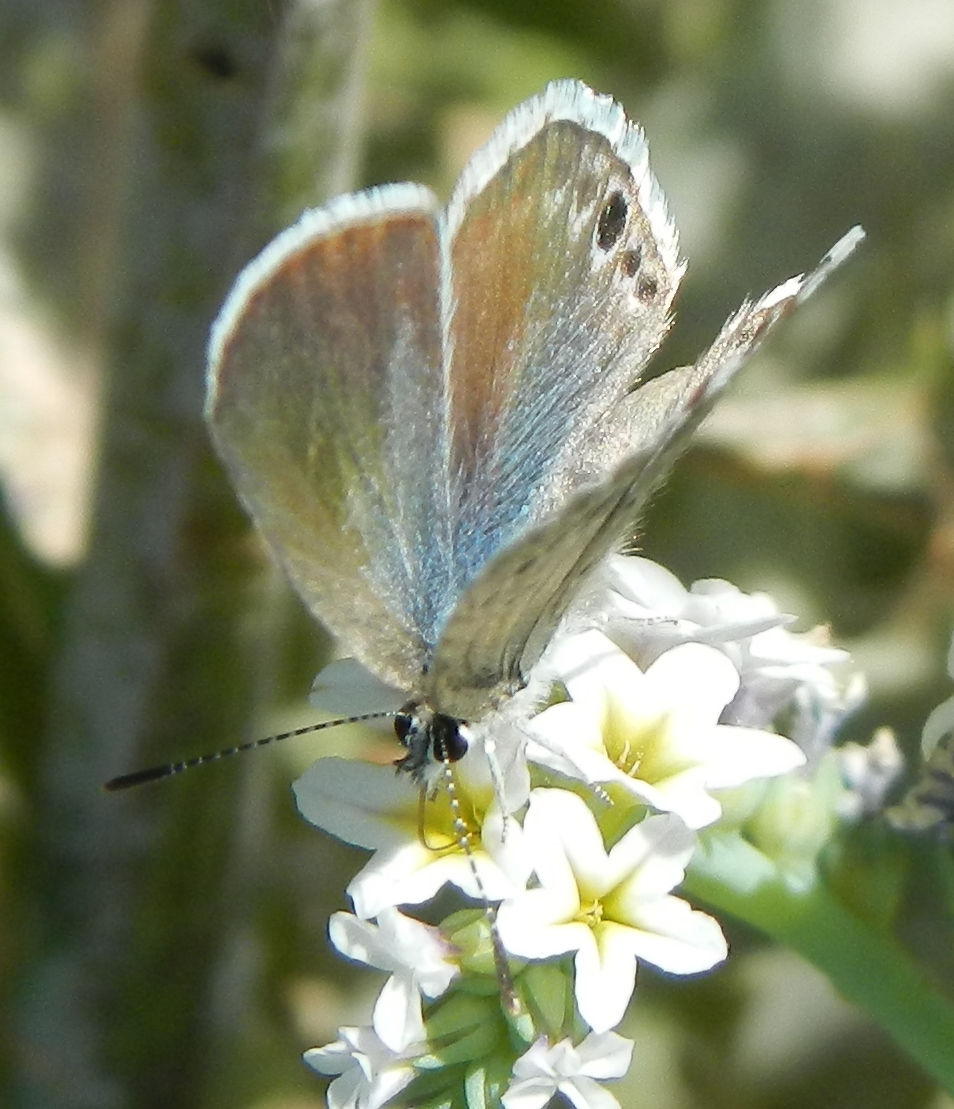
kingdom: Animalia
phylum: Arthropoda
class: Insecta
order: Lepidoptera
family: Lycaenidae
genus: Echinargus
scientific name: Echinargus isola
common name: Reakirt's blue
